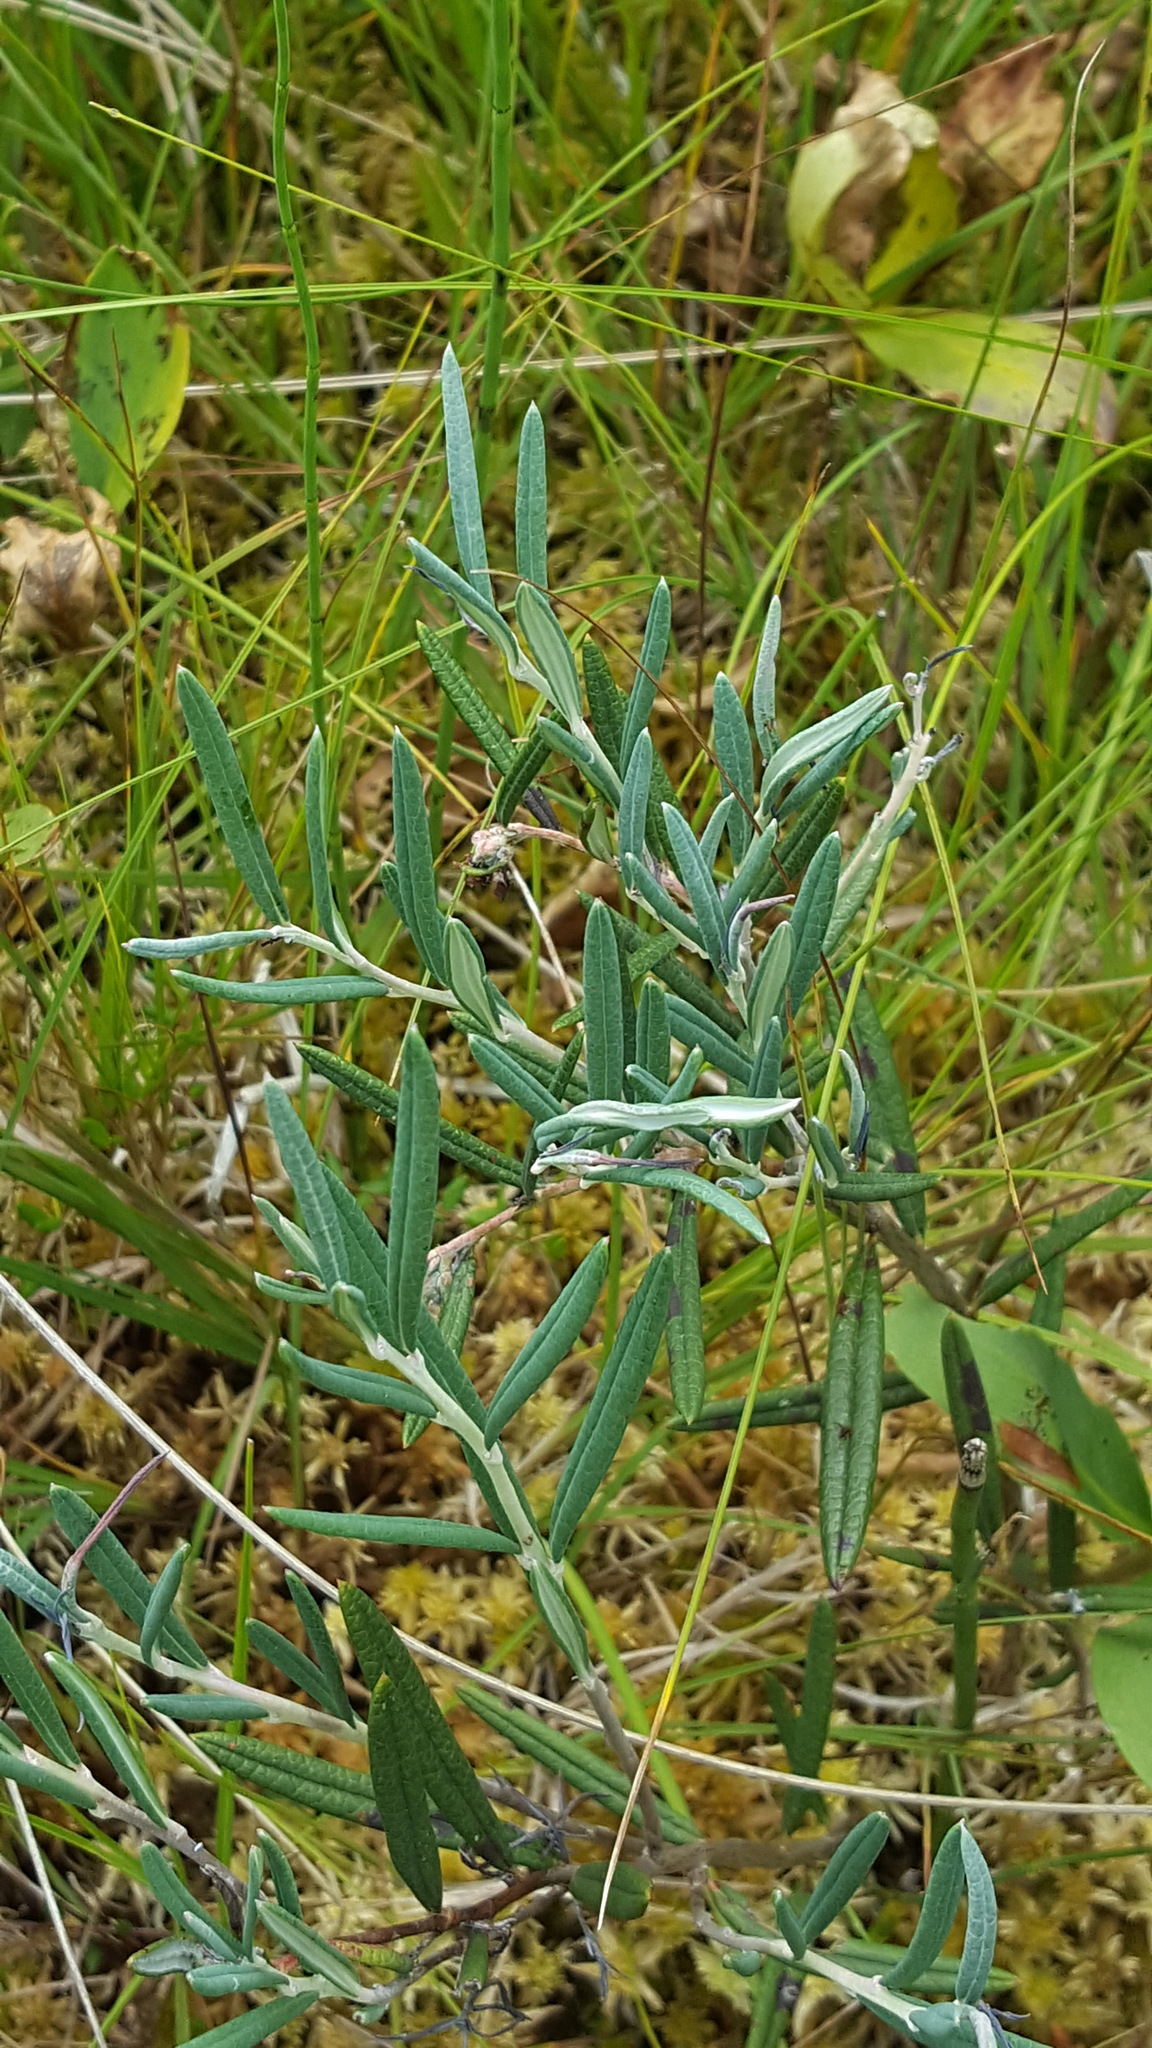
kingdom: Plantae
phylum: Tracheophyta
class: Magnoliopsida
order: Ericales
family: Ericaceae
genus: Andromeda
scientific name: Andromeda polifolia
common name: Bog-rosemary
